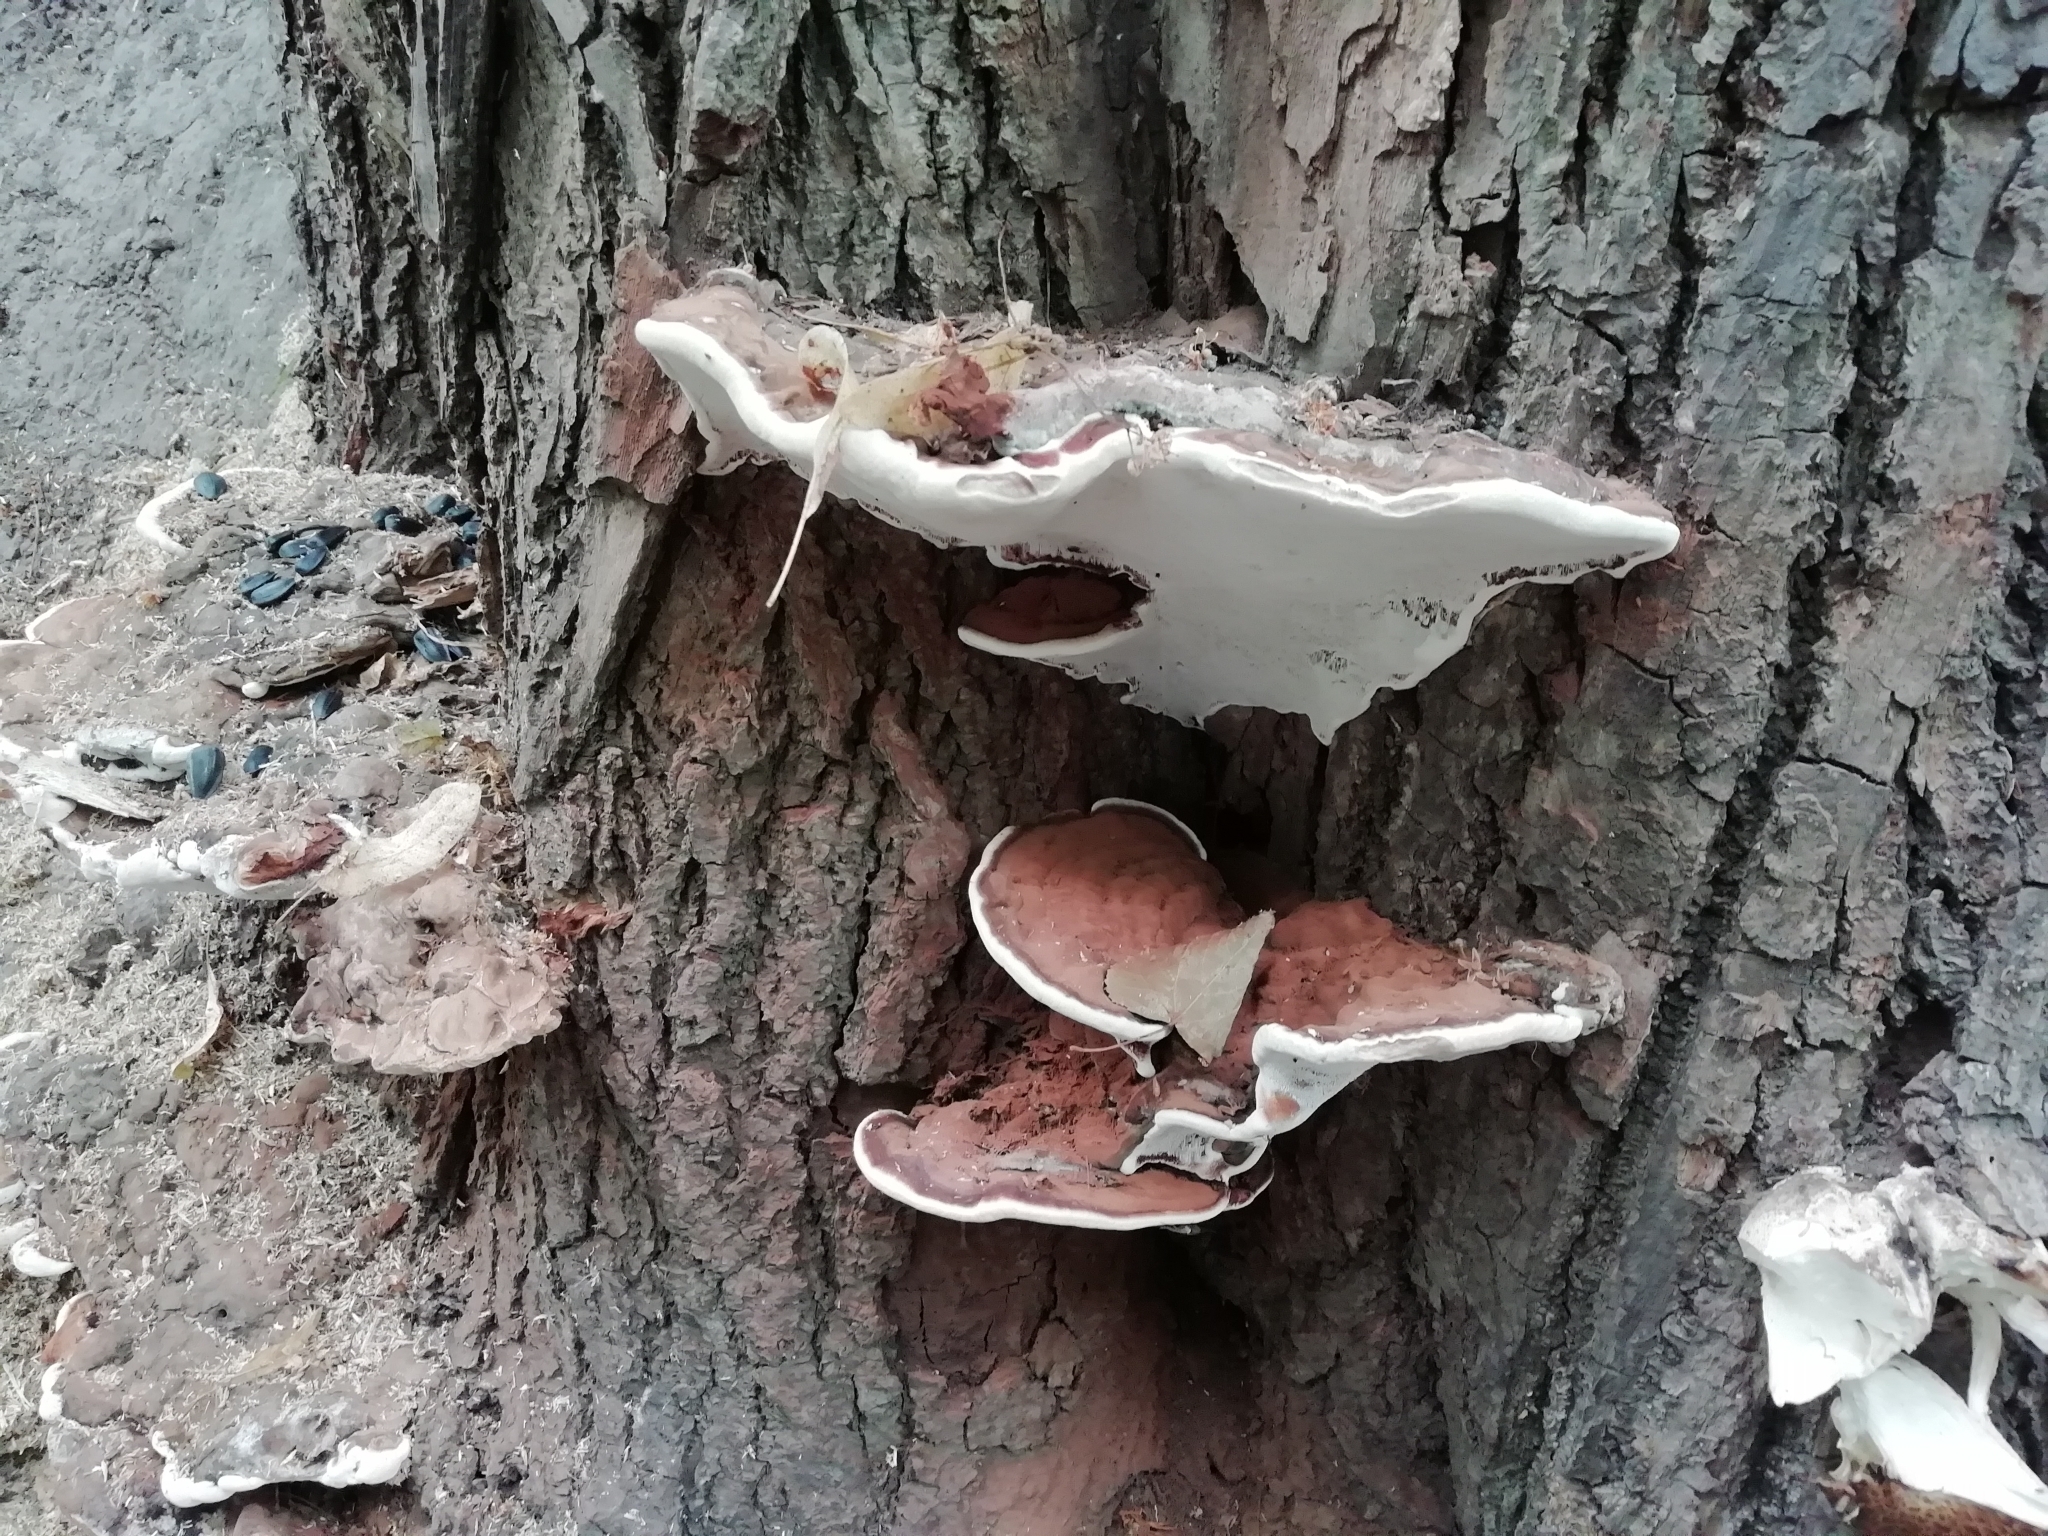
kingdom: Fungi
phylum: Basidiomycota
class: Agaricomycetes
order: Polyporales
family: Polyporaceae
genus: Ganoderma
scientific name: Ganoderma applanatum
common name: Artist's bracket
